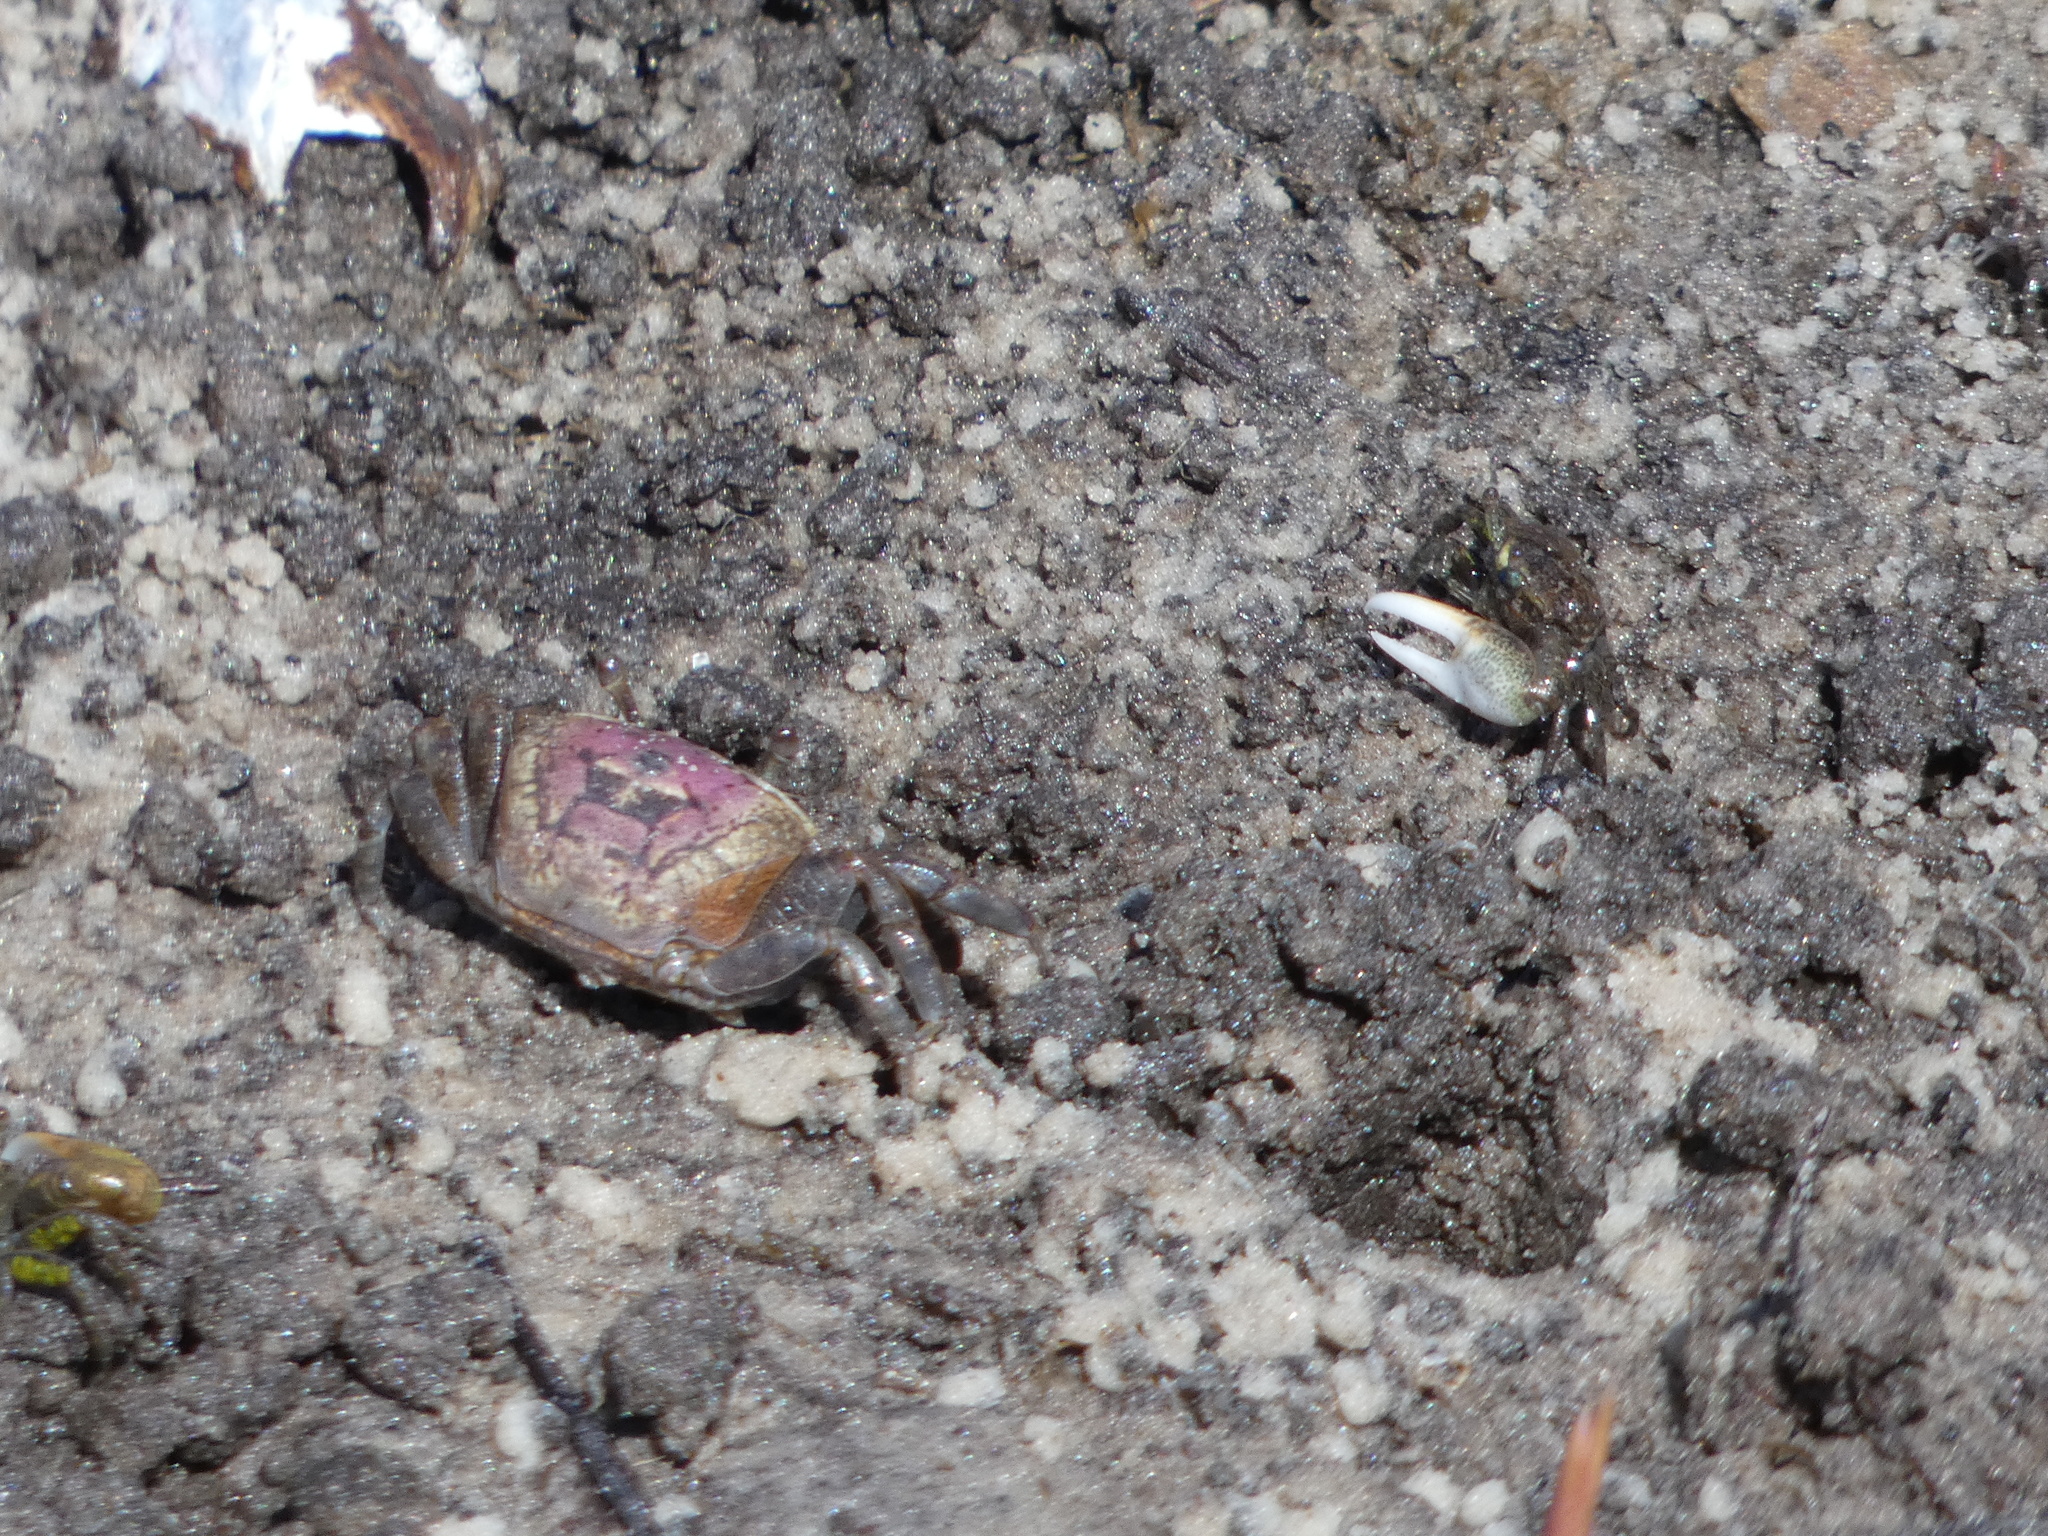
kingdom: Animalia
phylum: Arthropoda
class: Malacostraca
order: Decapoda
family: Ocypodidae
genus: Leptuca
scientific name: Leptuca pugilator
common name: Atlantic sand fiddler crab
